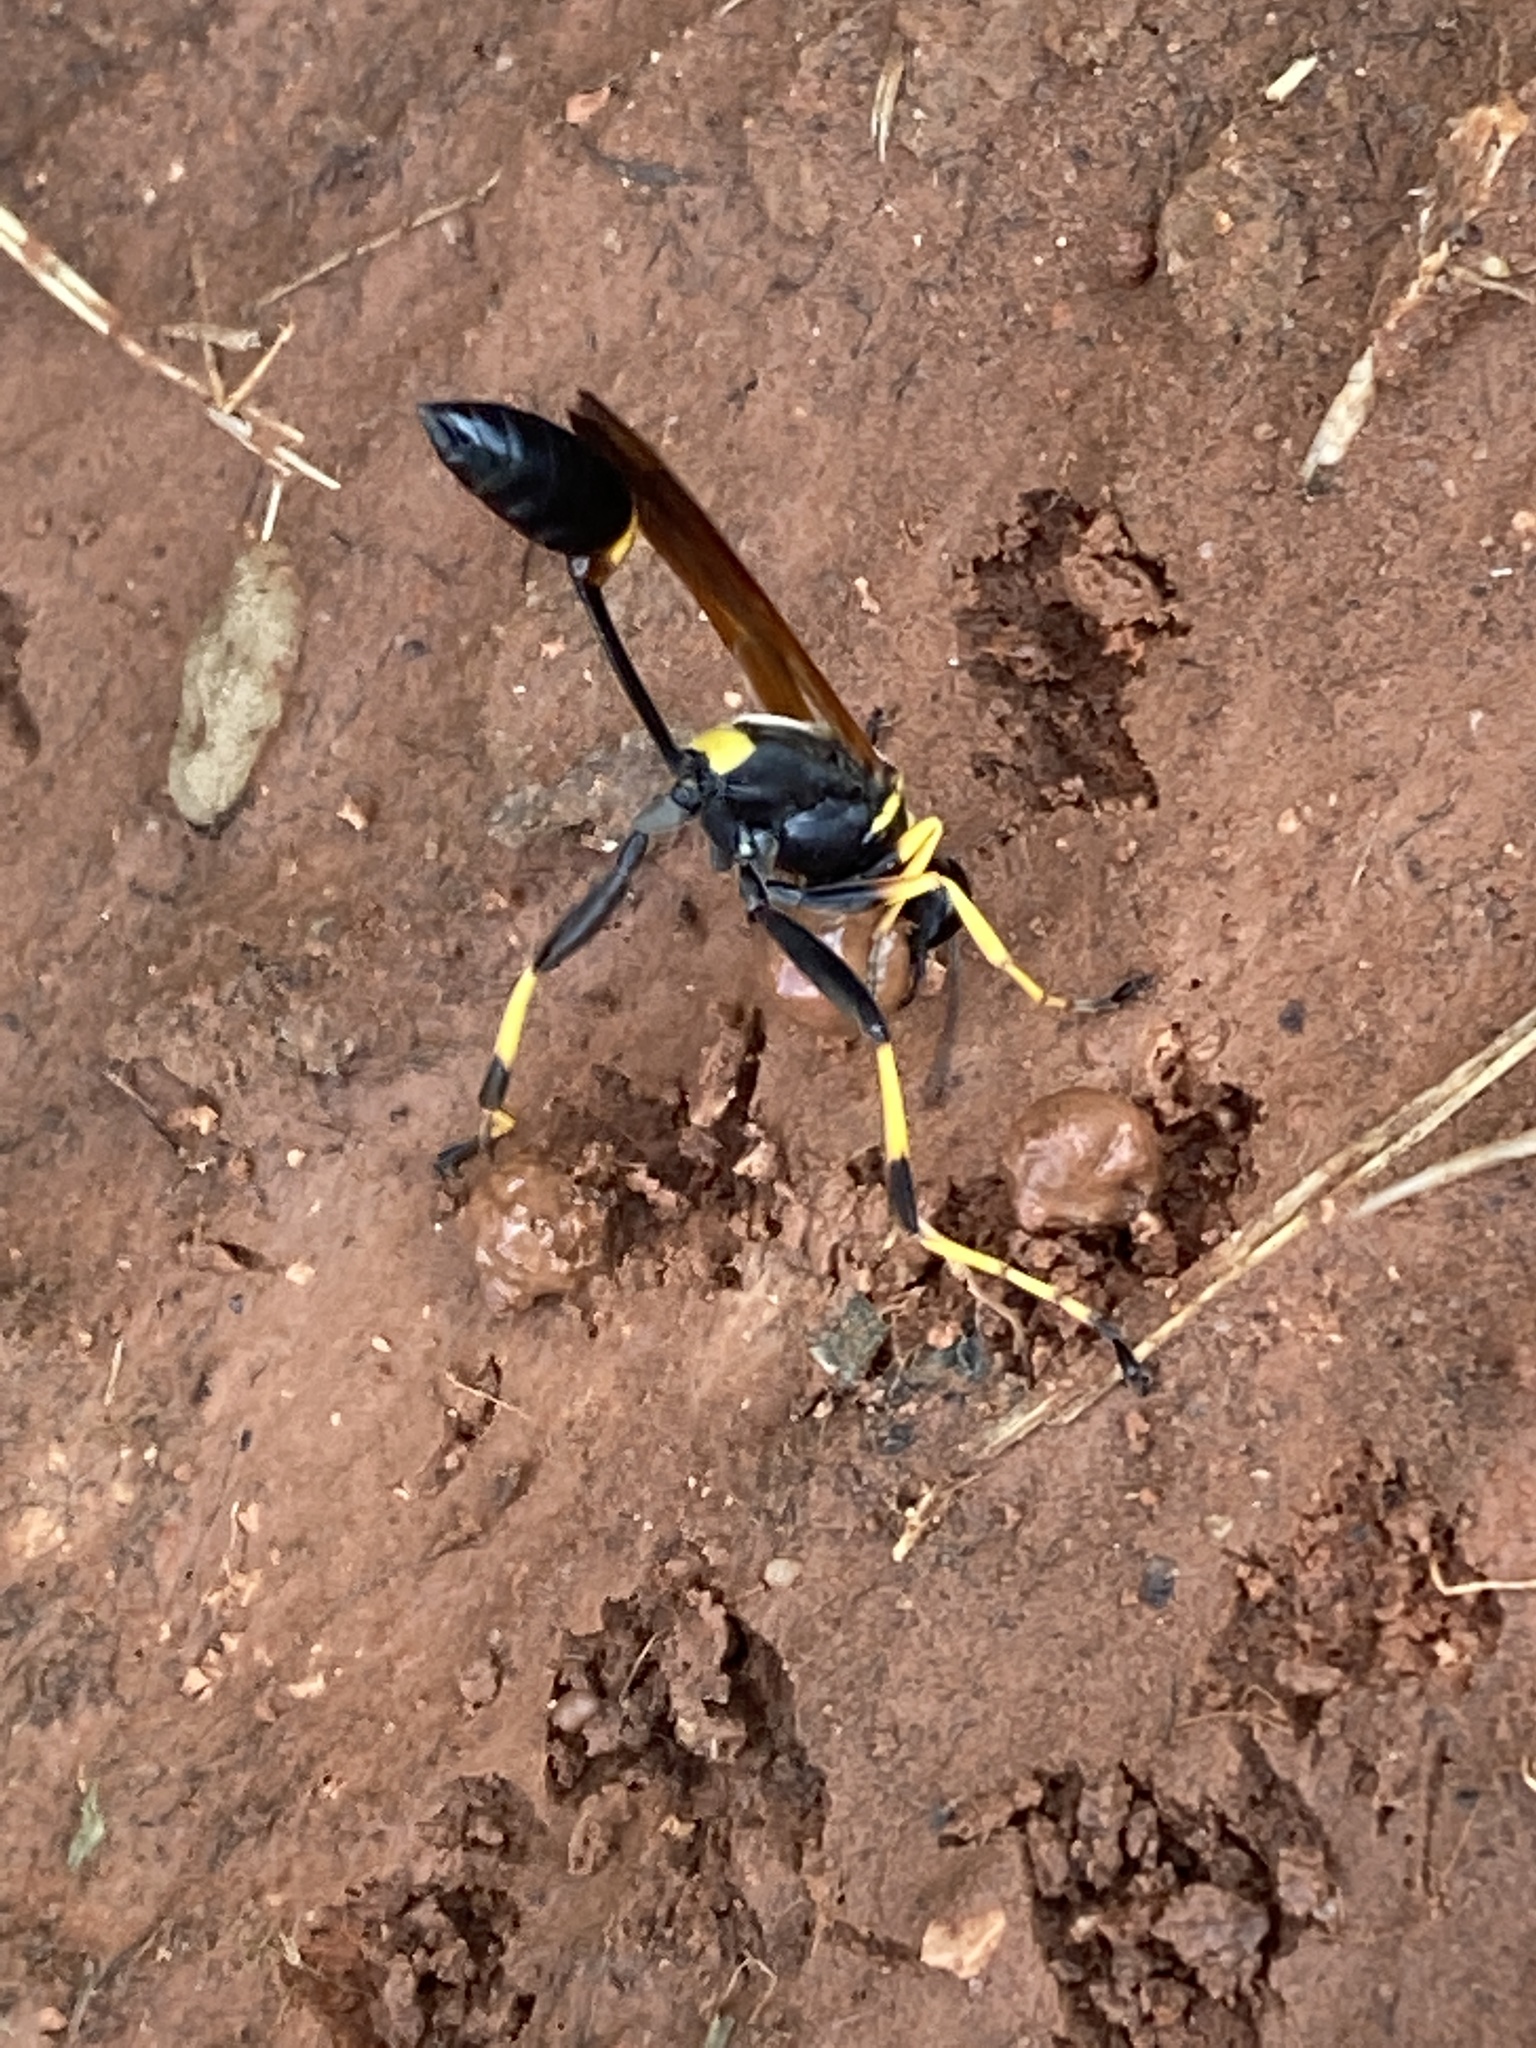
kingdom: Animalia
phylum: Arthropoda
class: Insecta
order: Hymenoptera
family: Sphecidae
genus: Sceliphron
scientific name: Sceliphron caementarium
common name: Mud dauber
